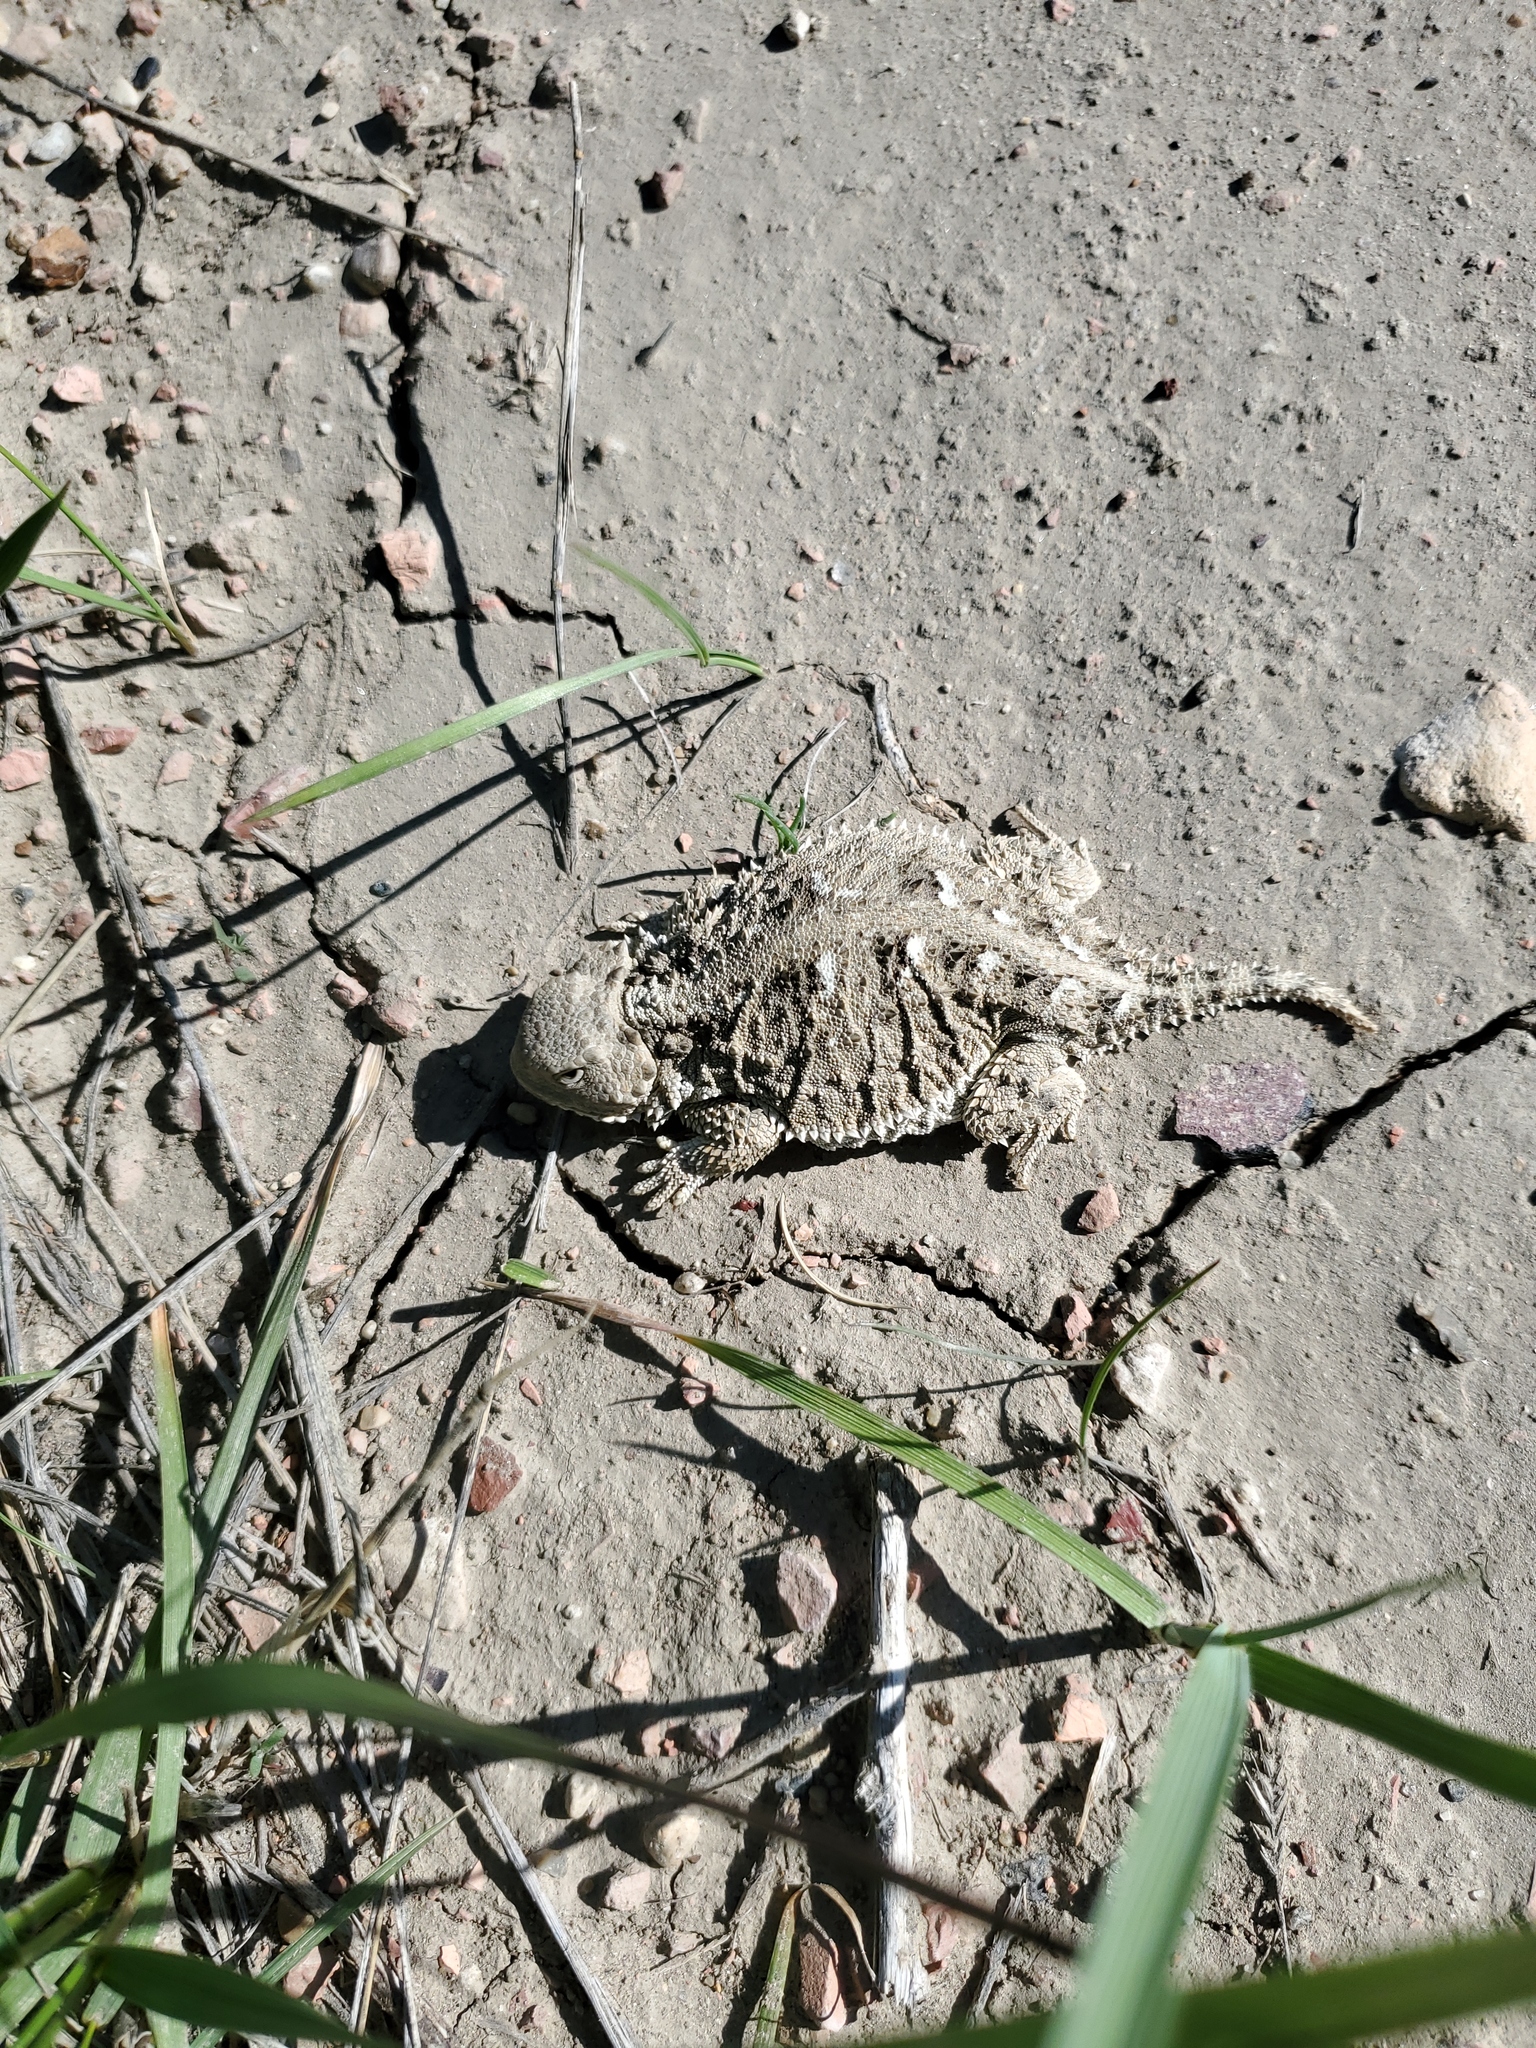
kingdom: Animalia
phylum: Chordata
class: Squamata
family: Phrynosomatidae
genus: Phrynosoma
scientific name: Phrynosoma hernandesi
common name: Greater short-horned lizard
